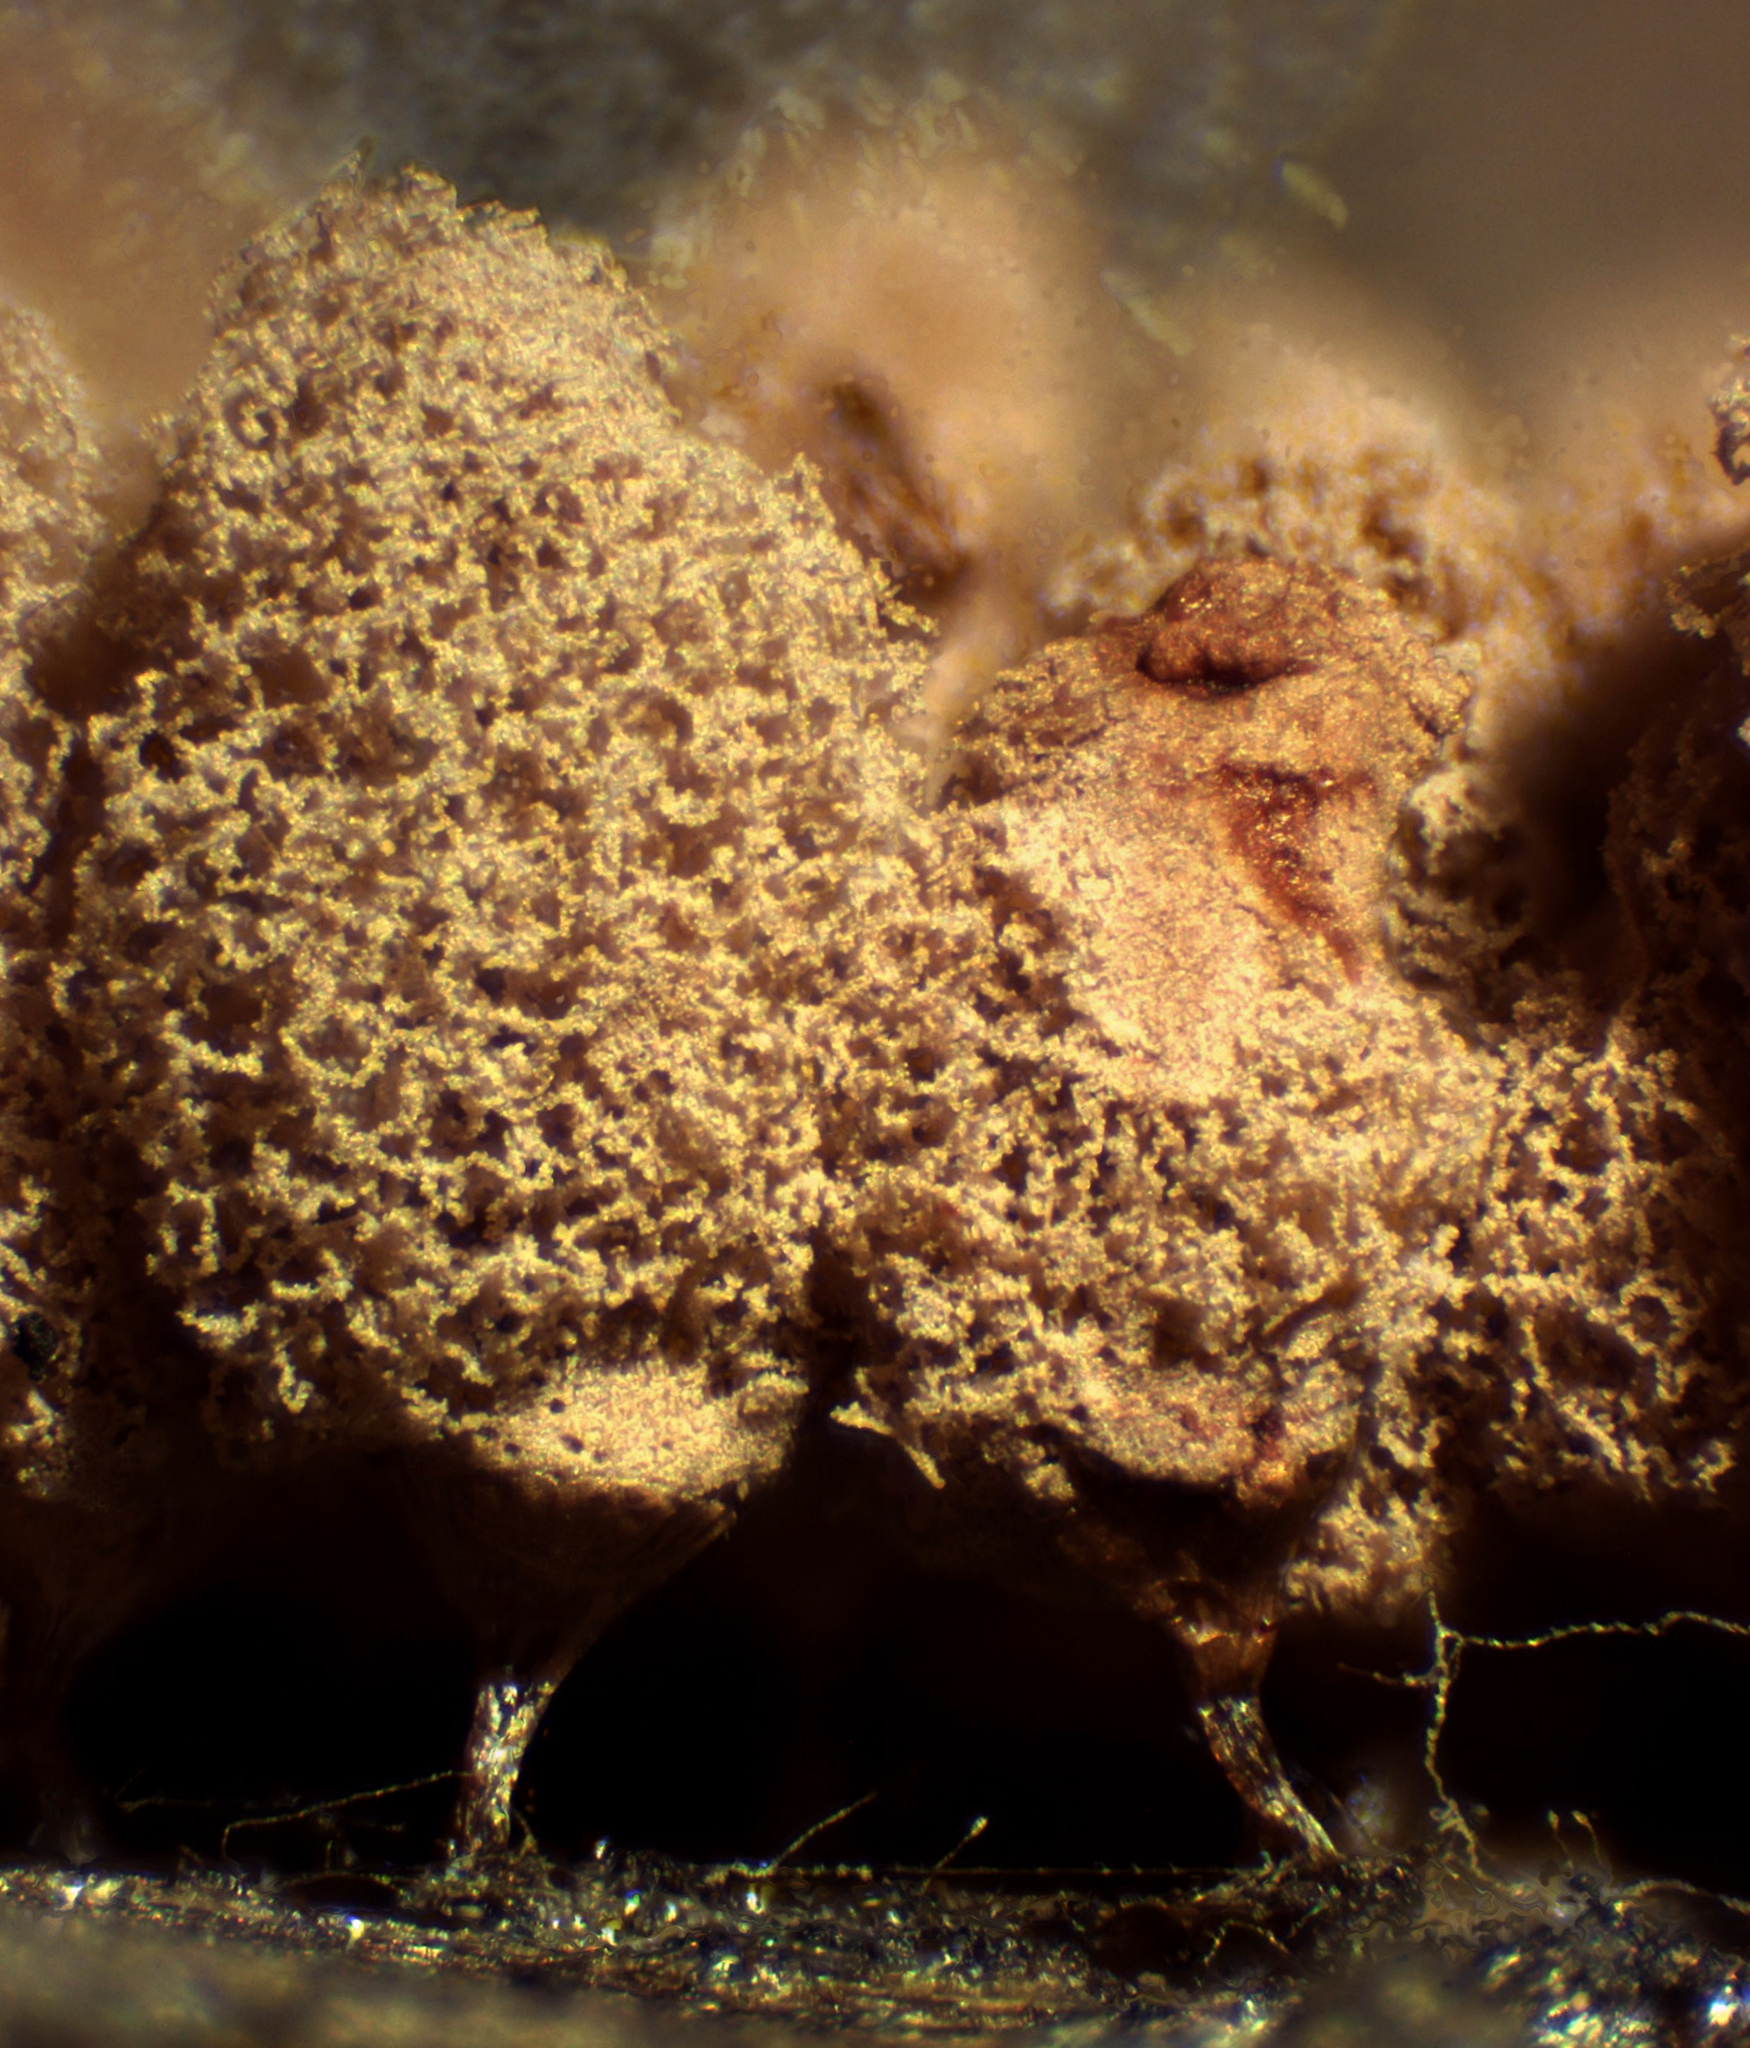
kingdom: Protozoa
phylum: Mycetozoa
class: Myxomycetes
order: Trichiales
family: Arcyriaceae
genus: Arcyria
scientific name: Arcyria denudata
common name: Carnival candy slime mold
